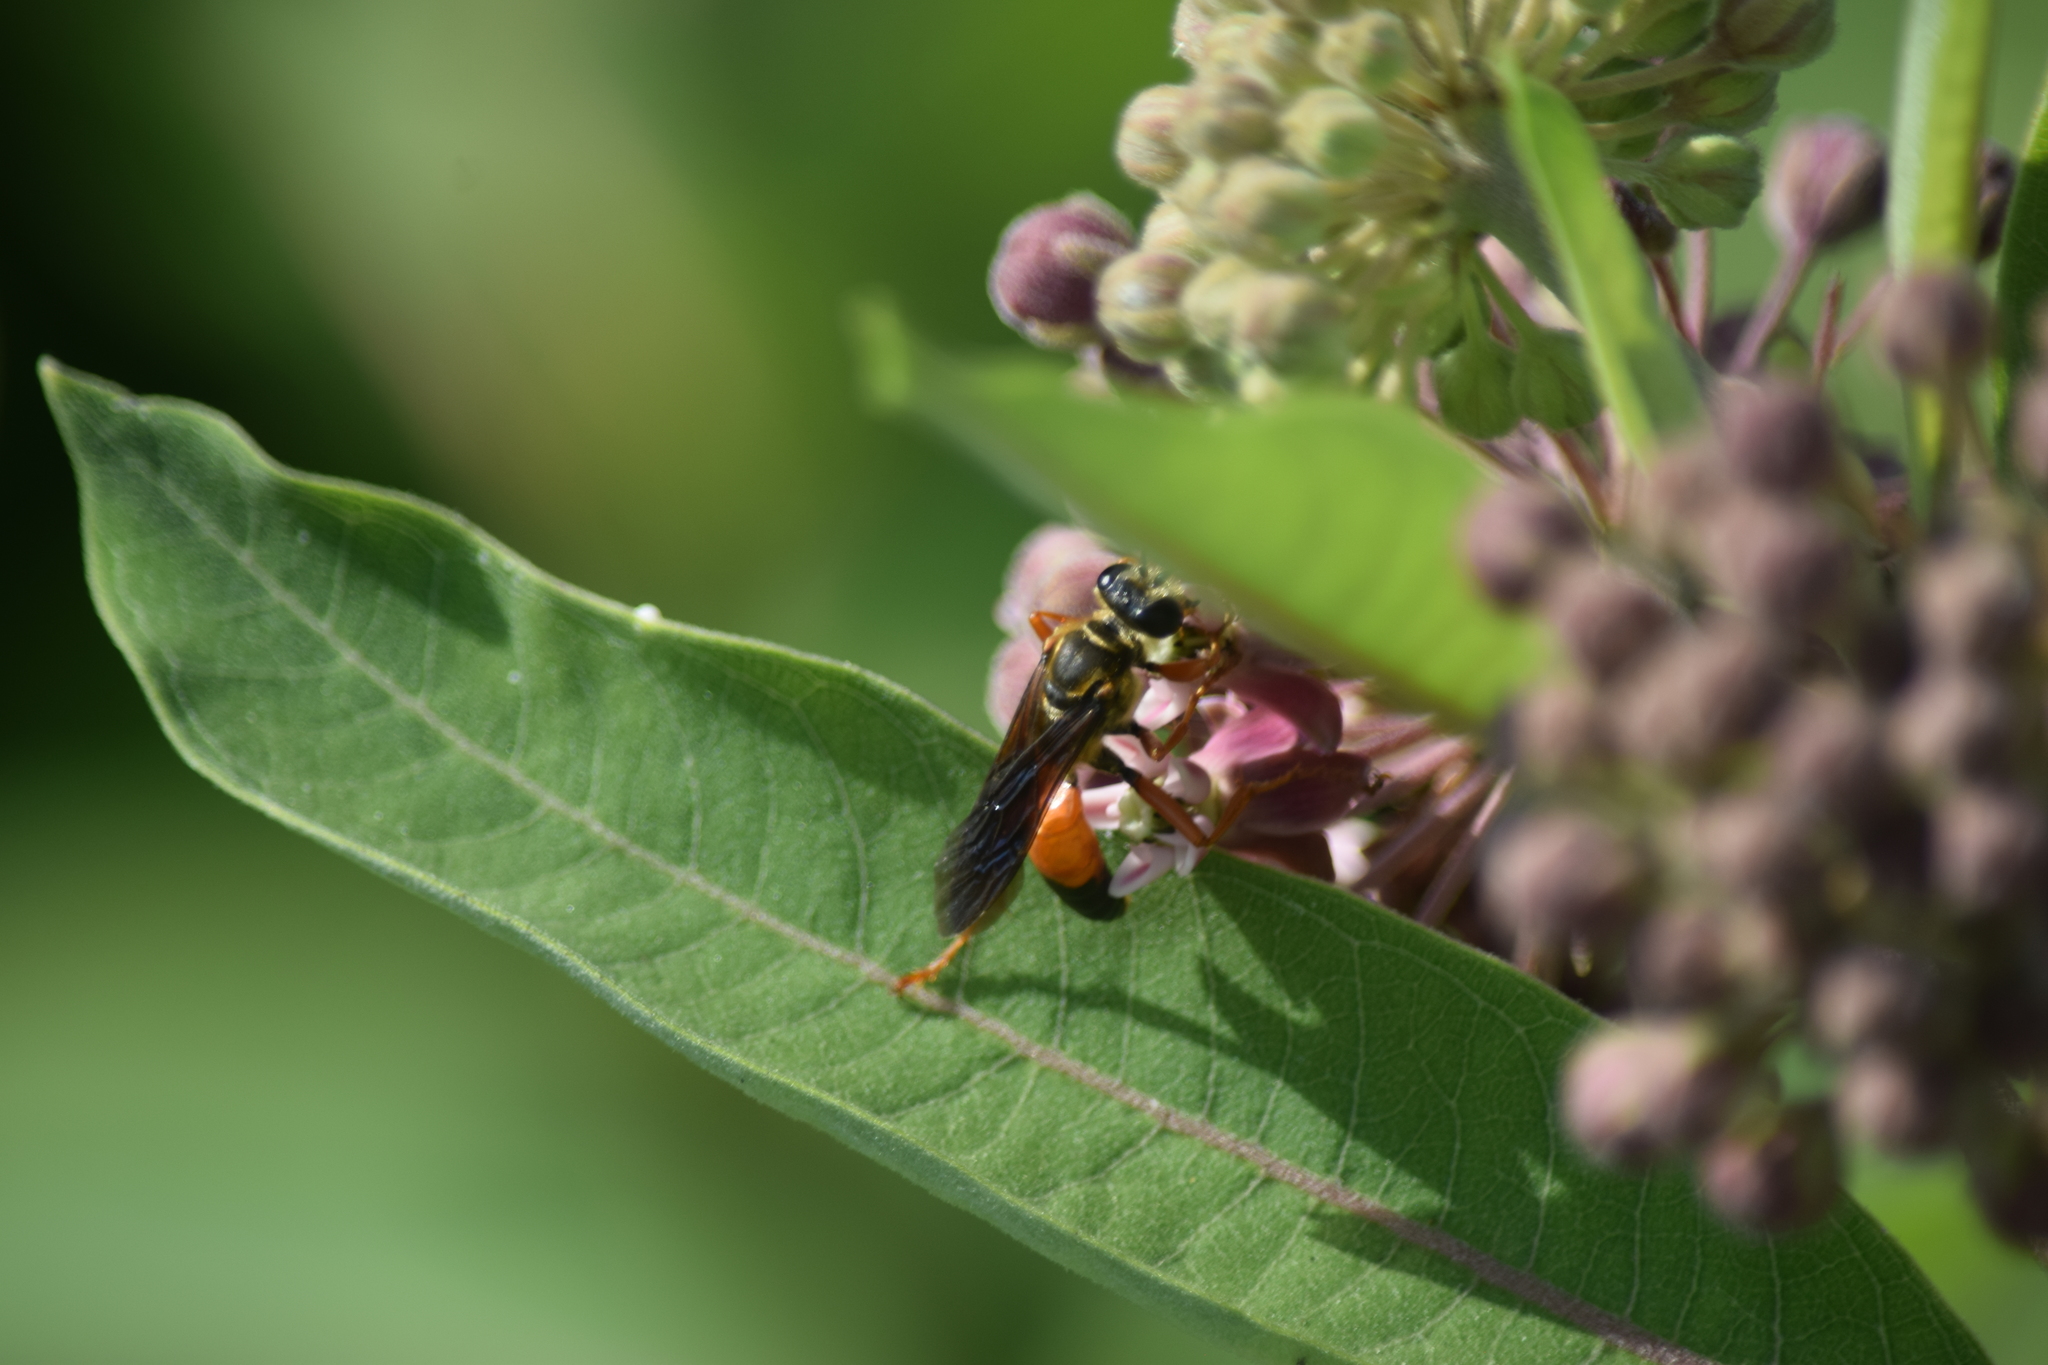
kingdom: Animalia
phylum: Arthropoda
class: Insecta
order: Hymenoptera
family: Sphecidae
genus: Sphex
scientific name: Sphex ichneumoneus
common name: Great golden digger wasp
